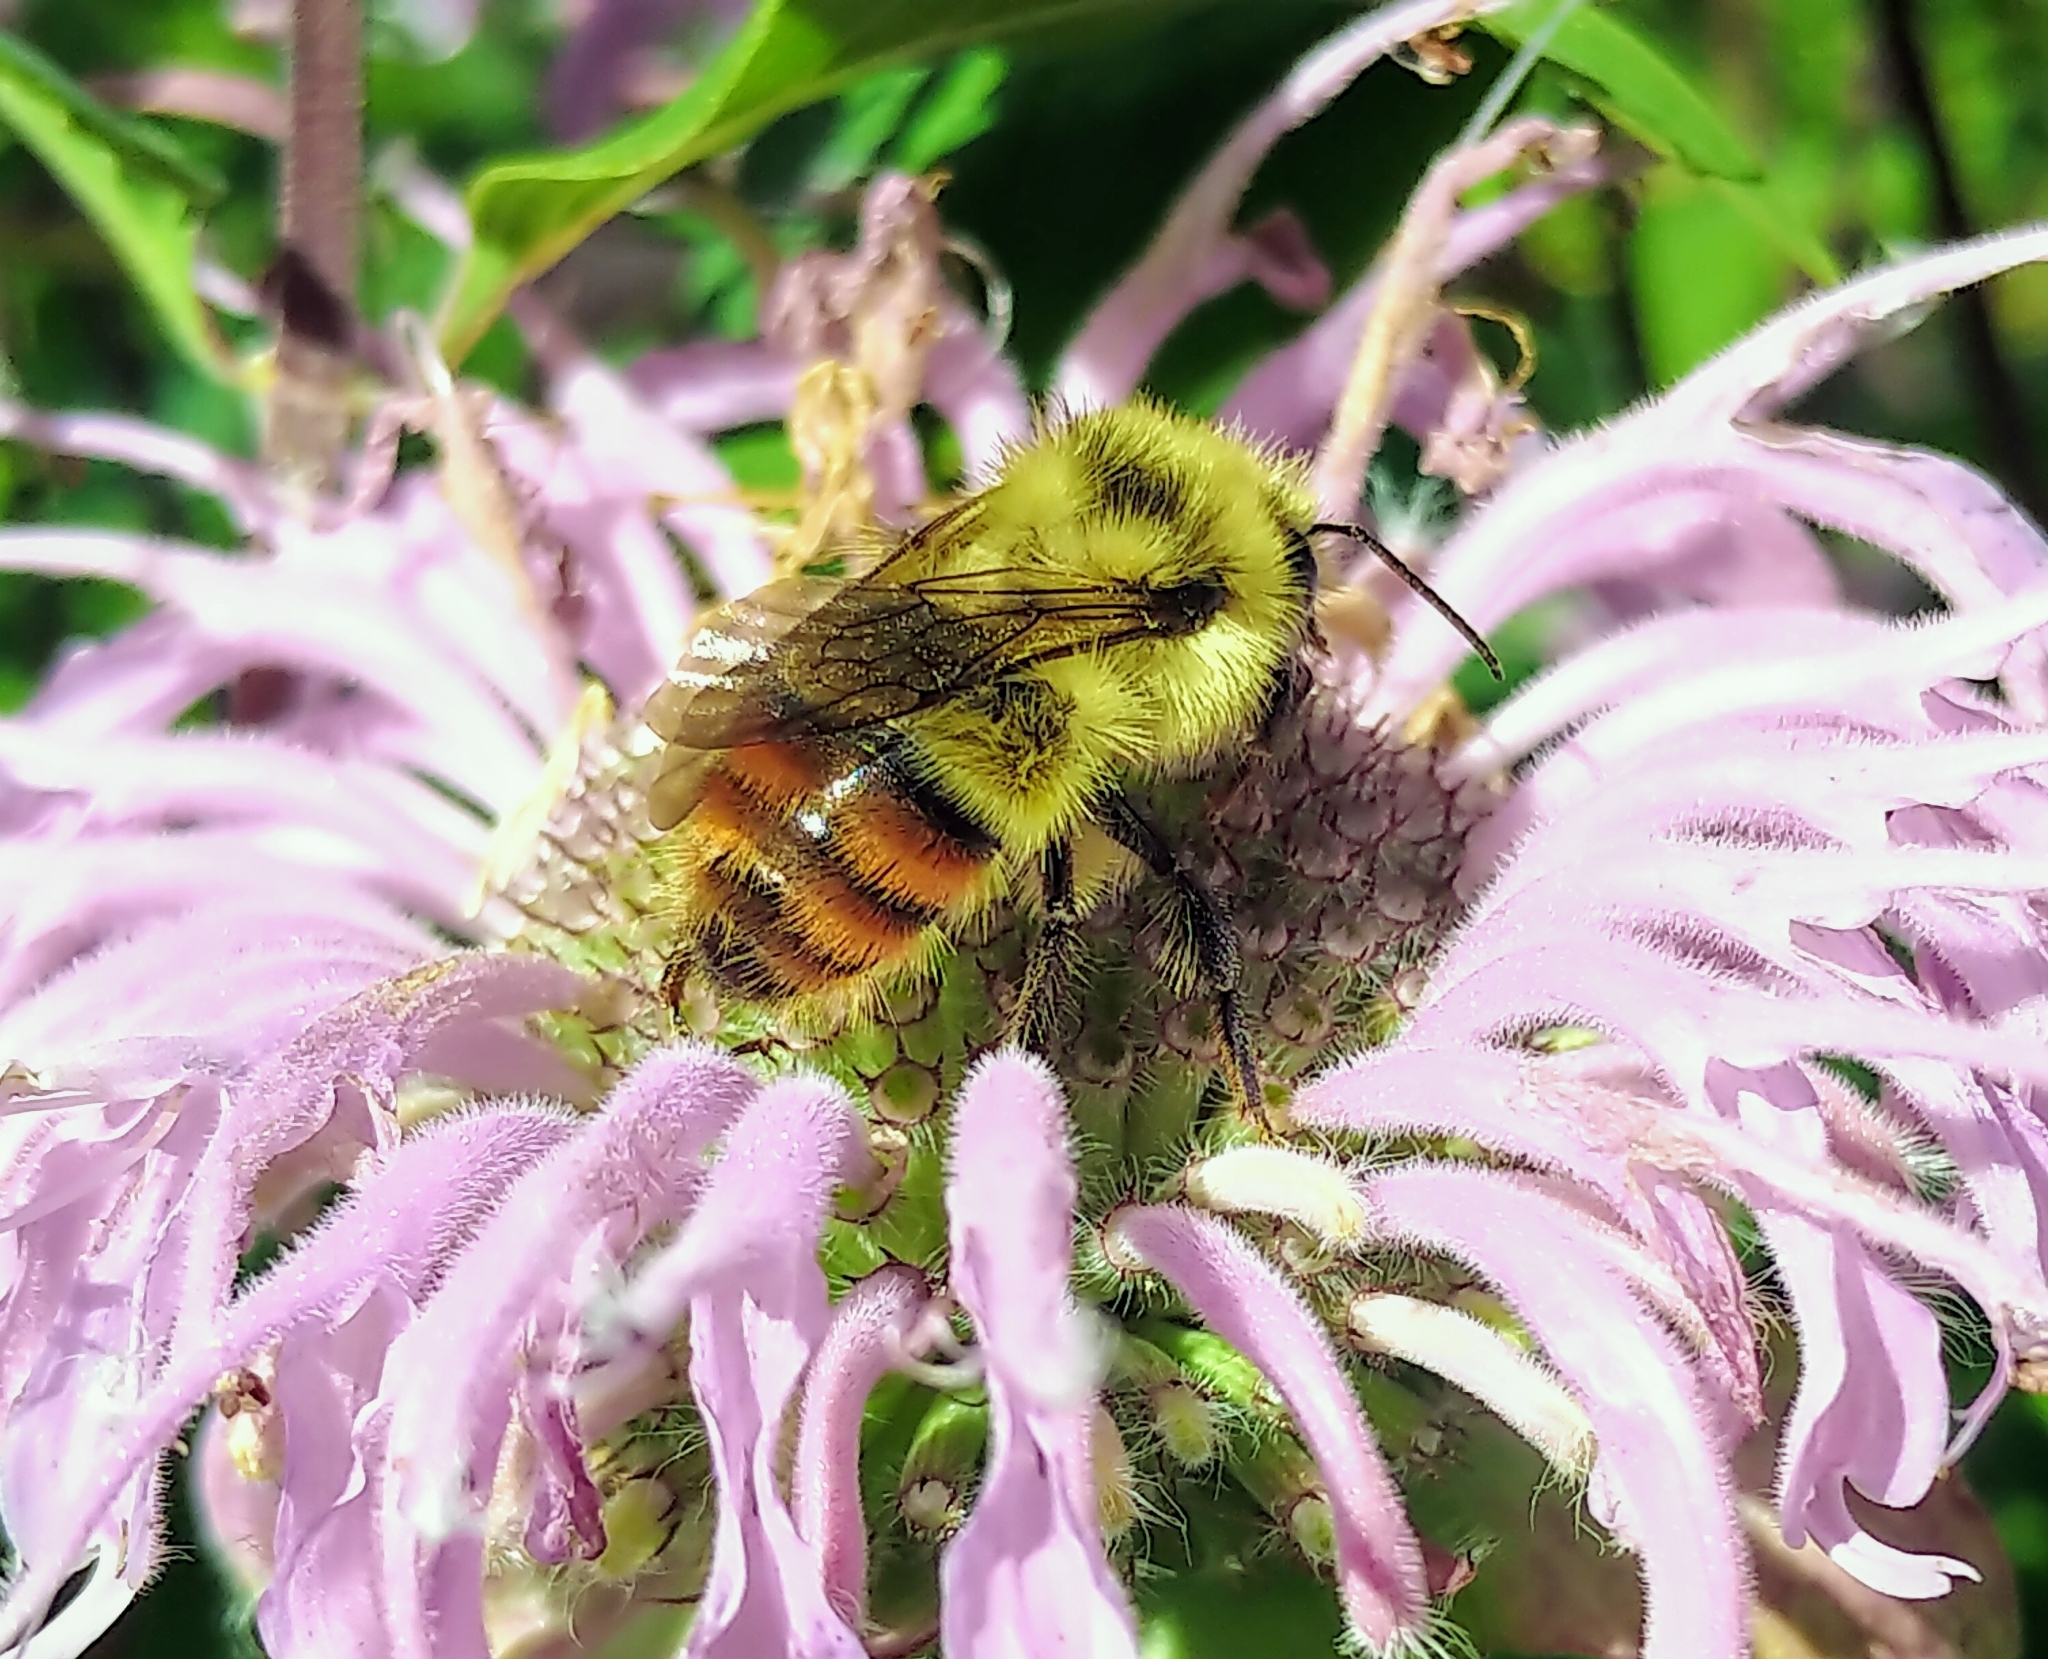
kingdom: Animalia
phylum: Arthropoda
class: Insecta
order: Hymenoptera
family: Apidae
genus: Bombus
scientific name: Bombus centralis
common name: Central bumble bee
